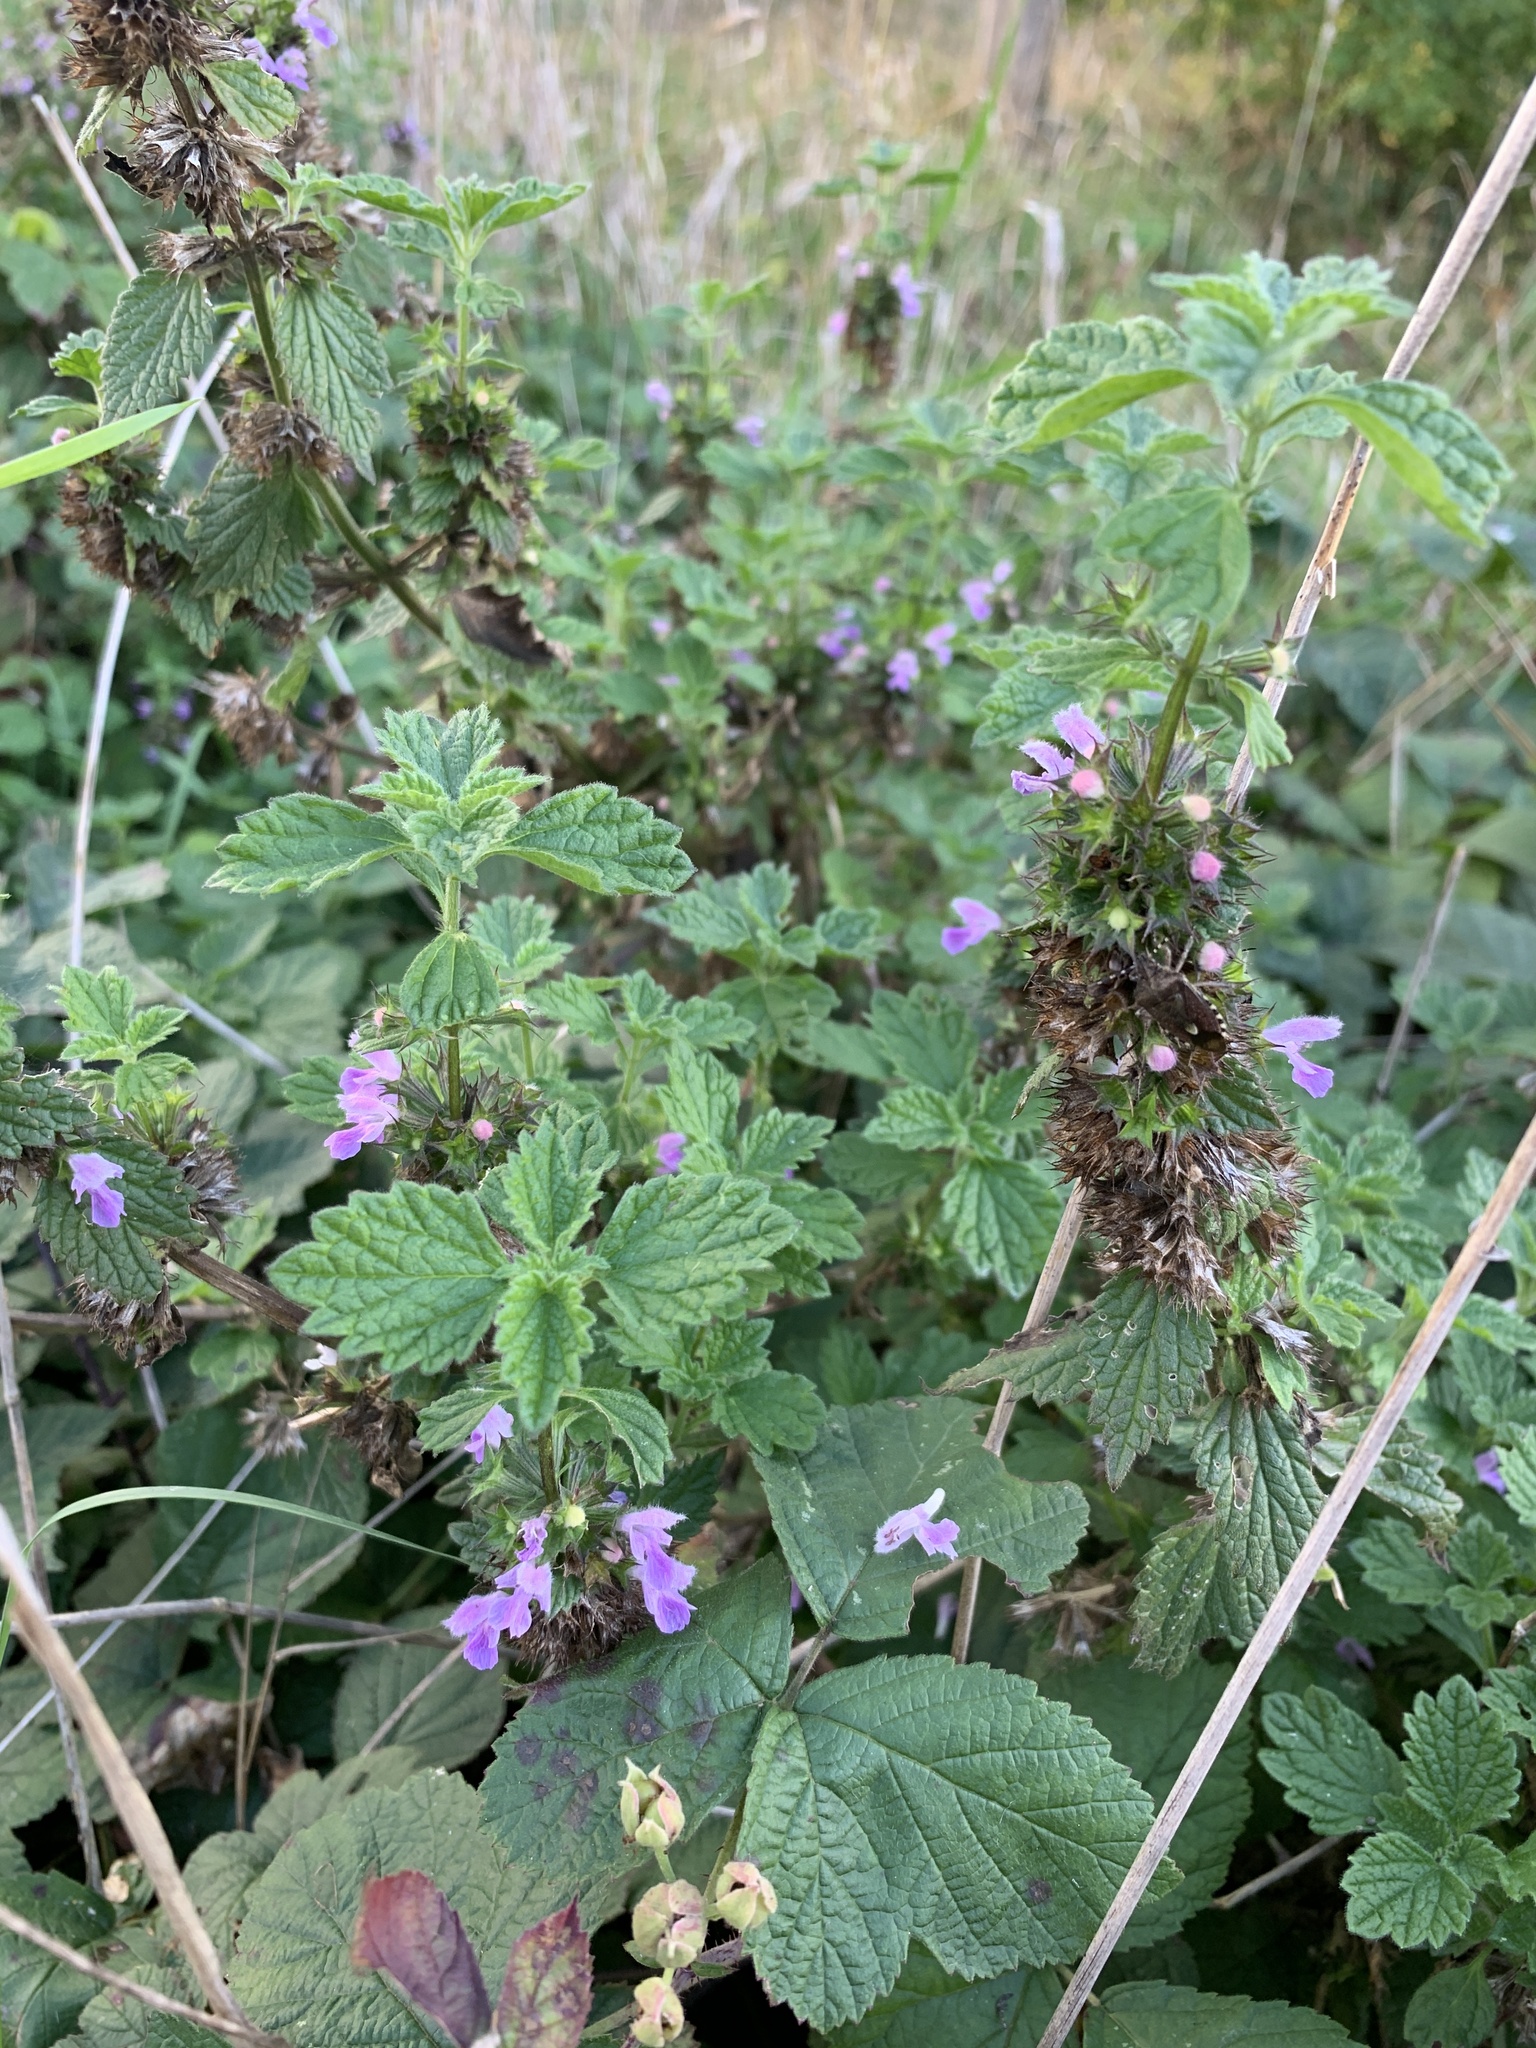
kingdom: Plantae
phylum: Tracheophyta
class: Magnoliopsida
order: Lamiales
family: Lamiaceae
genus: Ballota
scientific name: Ballota nigra
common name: Black horehound
